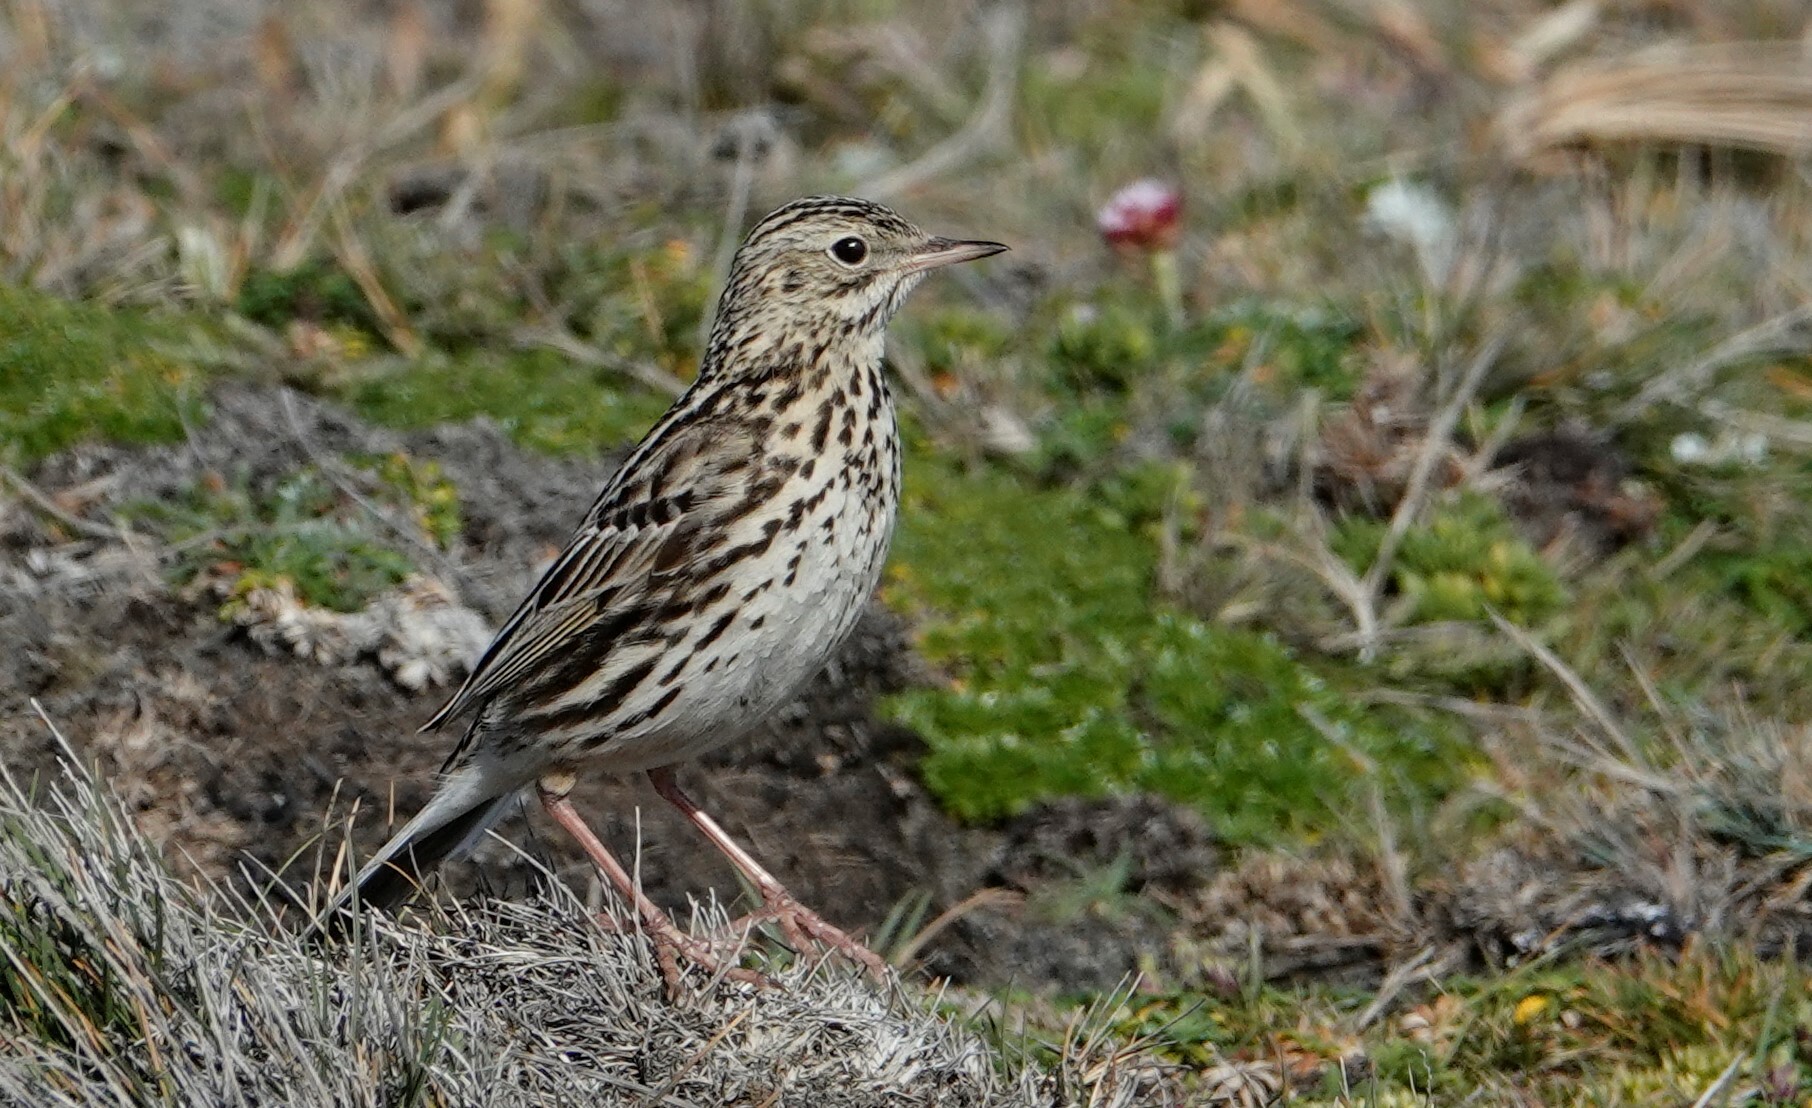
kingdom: Animalia
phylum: Chordata
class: Aves
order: Passeriformes
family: Motacillidae
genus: Anthus
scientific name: Anthus correndera
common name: Correndera pipit
